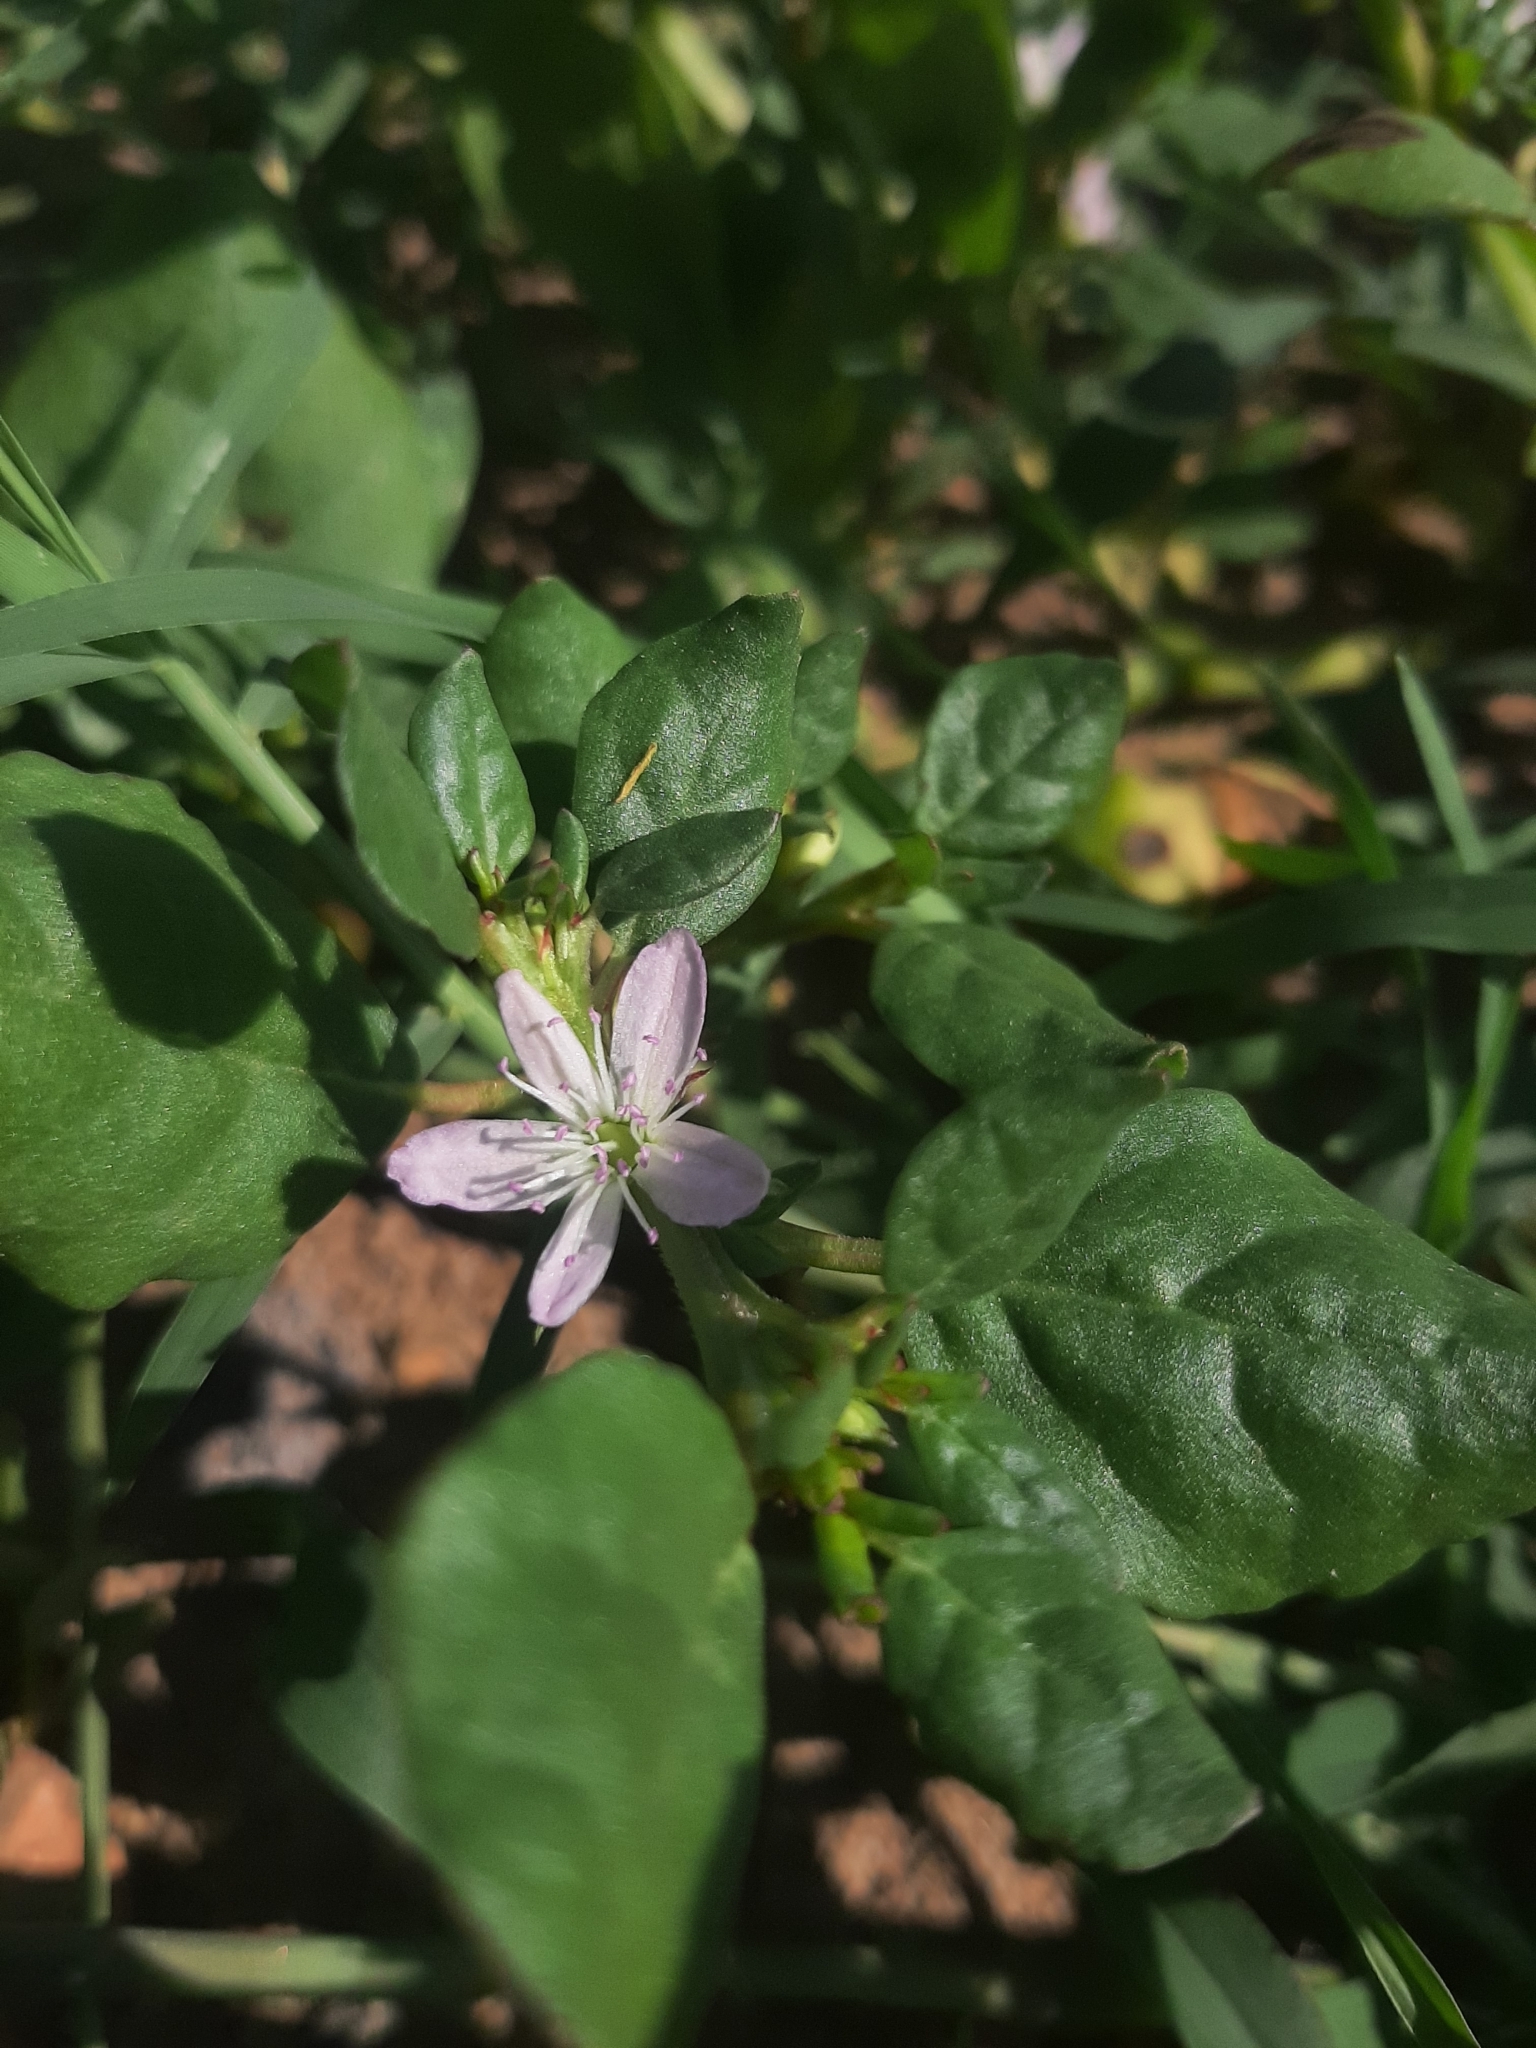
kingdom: Plantae
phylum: Tracheophyta
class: Magnoliopsida
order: Caryophyllales
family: Aizoaceae
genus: Trianthema
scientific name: Trianthema portulacastrum
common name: Desert horsepurslane
